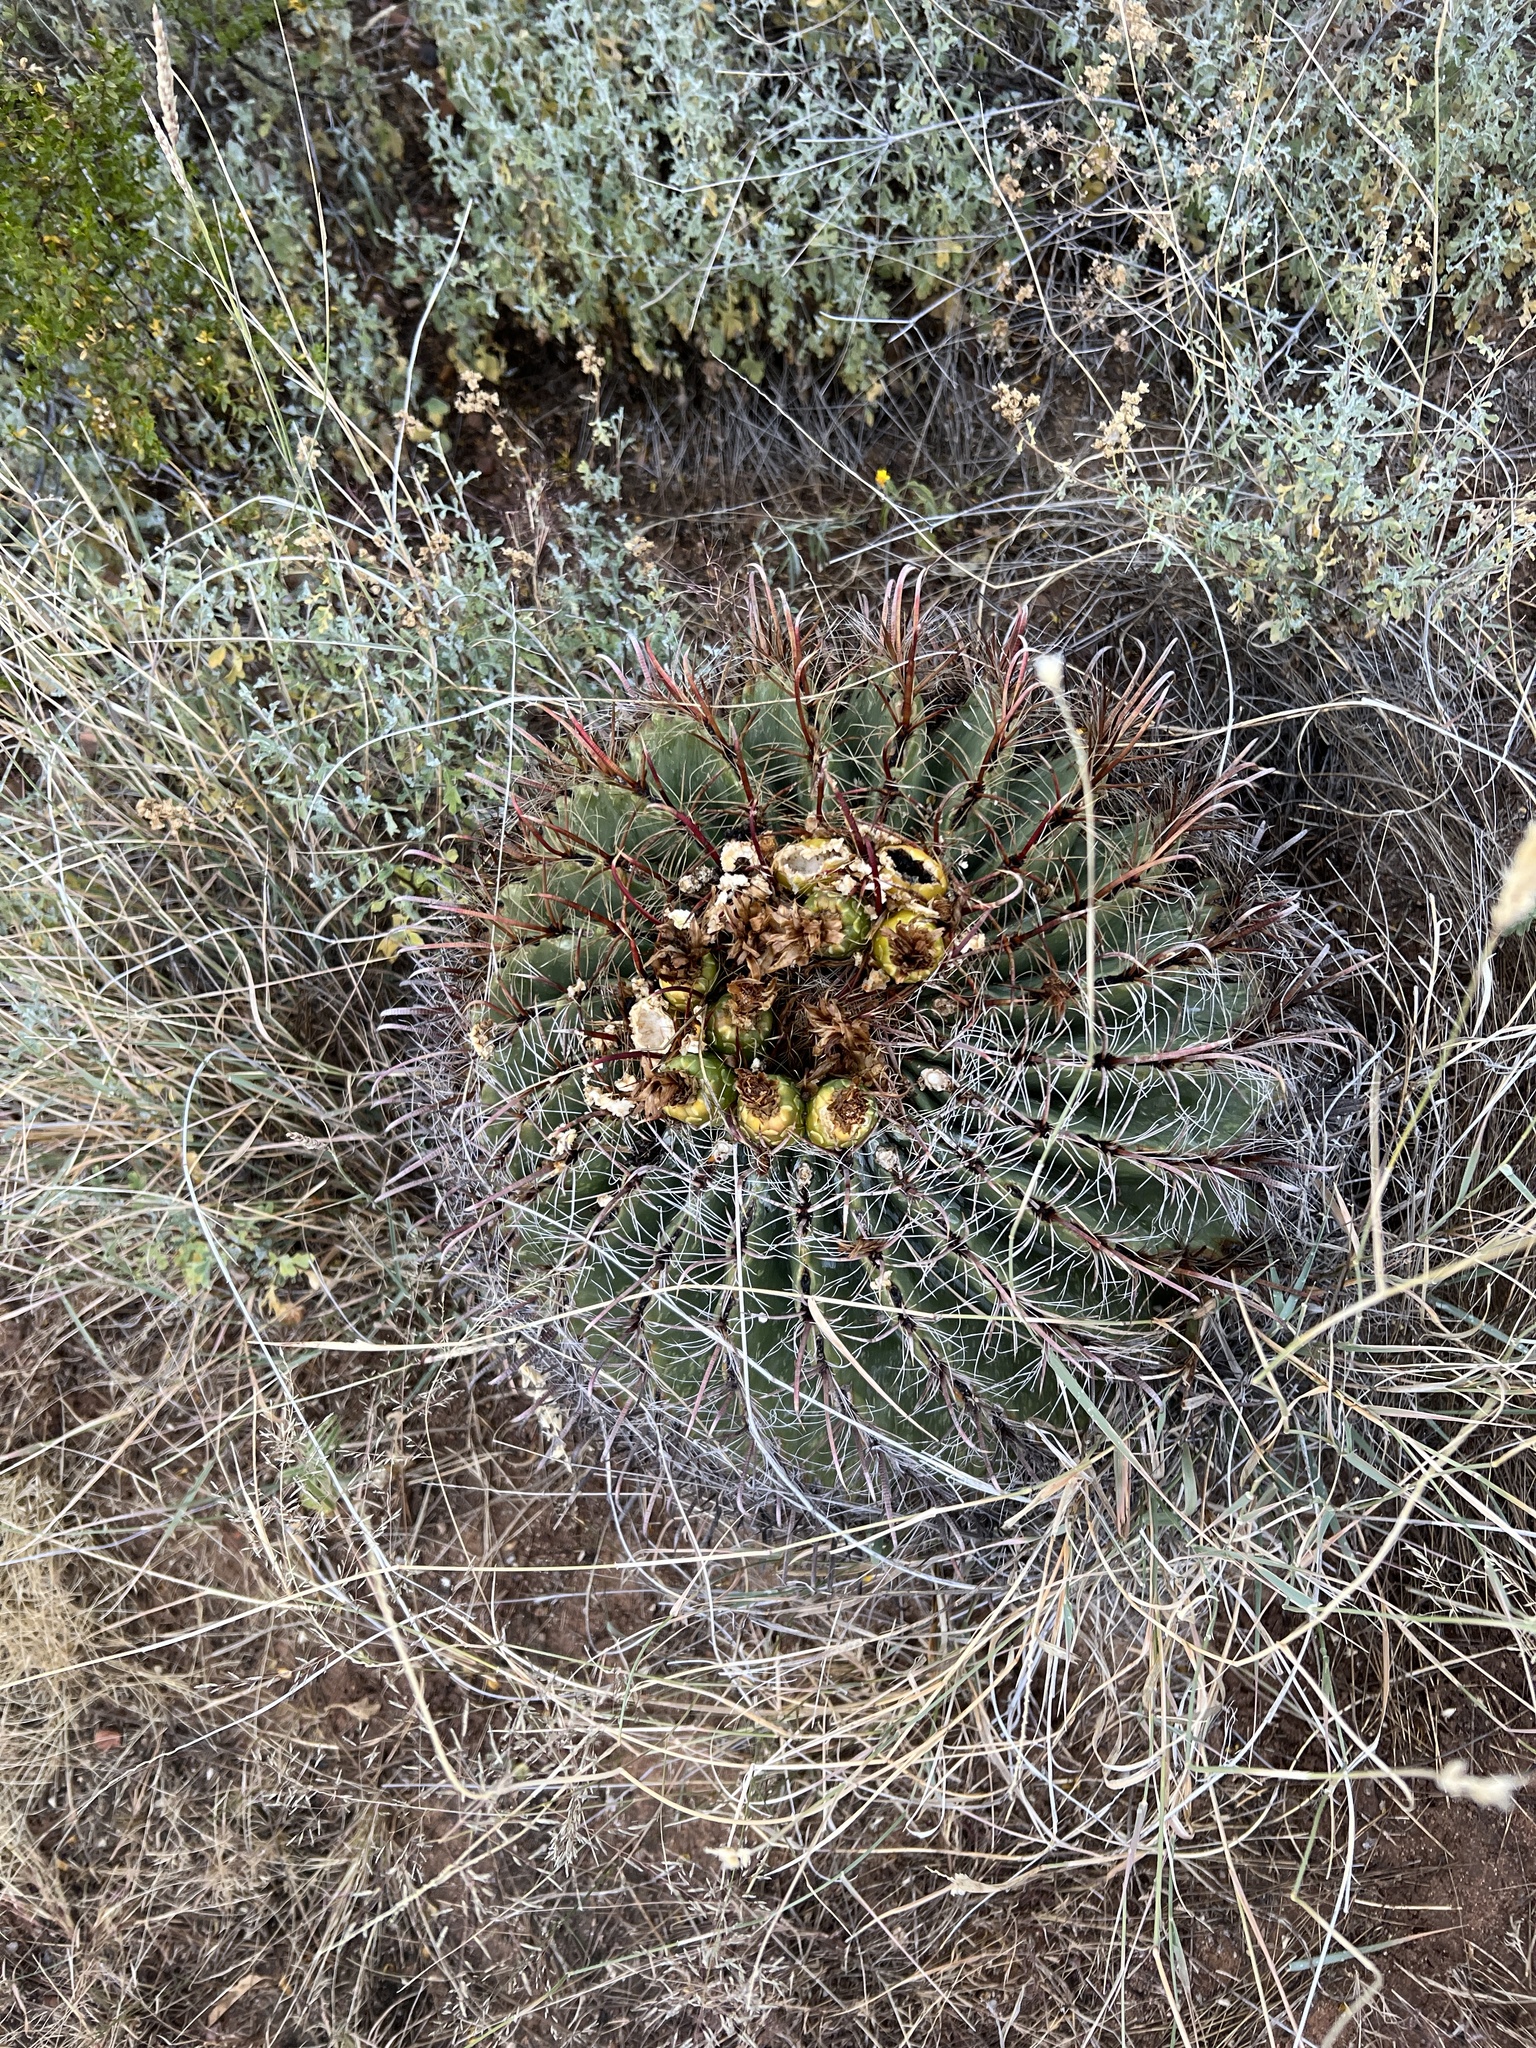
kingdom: Plantae
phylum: Tracheophyta
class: Magnoliopsida
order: Caryophyllales
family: Cactaceae
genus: Ferocactus
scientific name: Ferocactus wislizeni
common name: Candy barrel cactus
